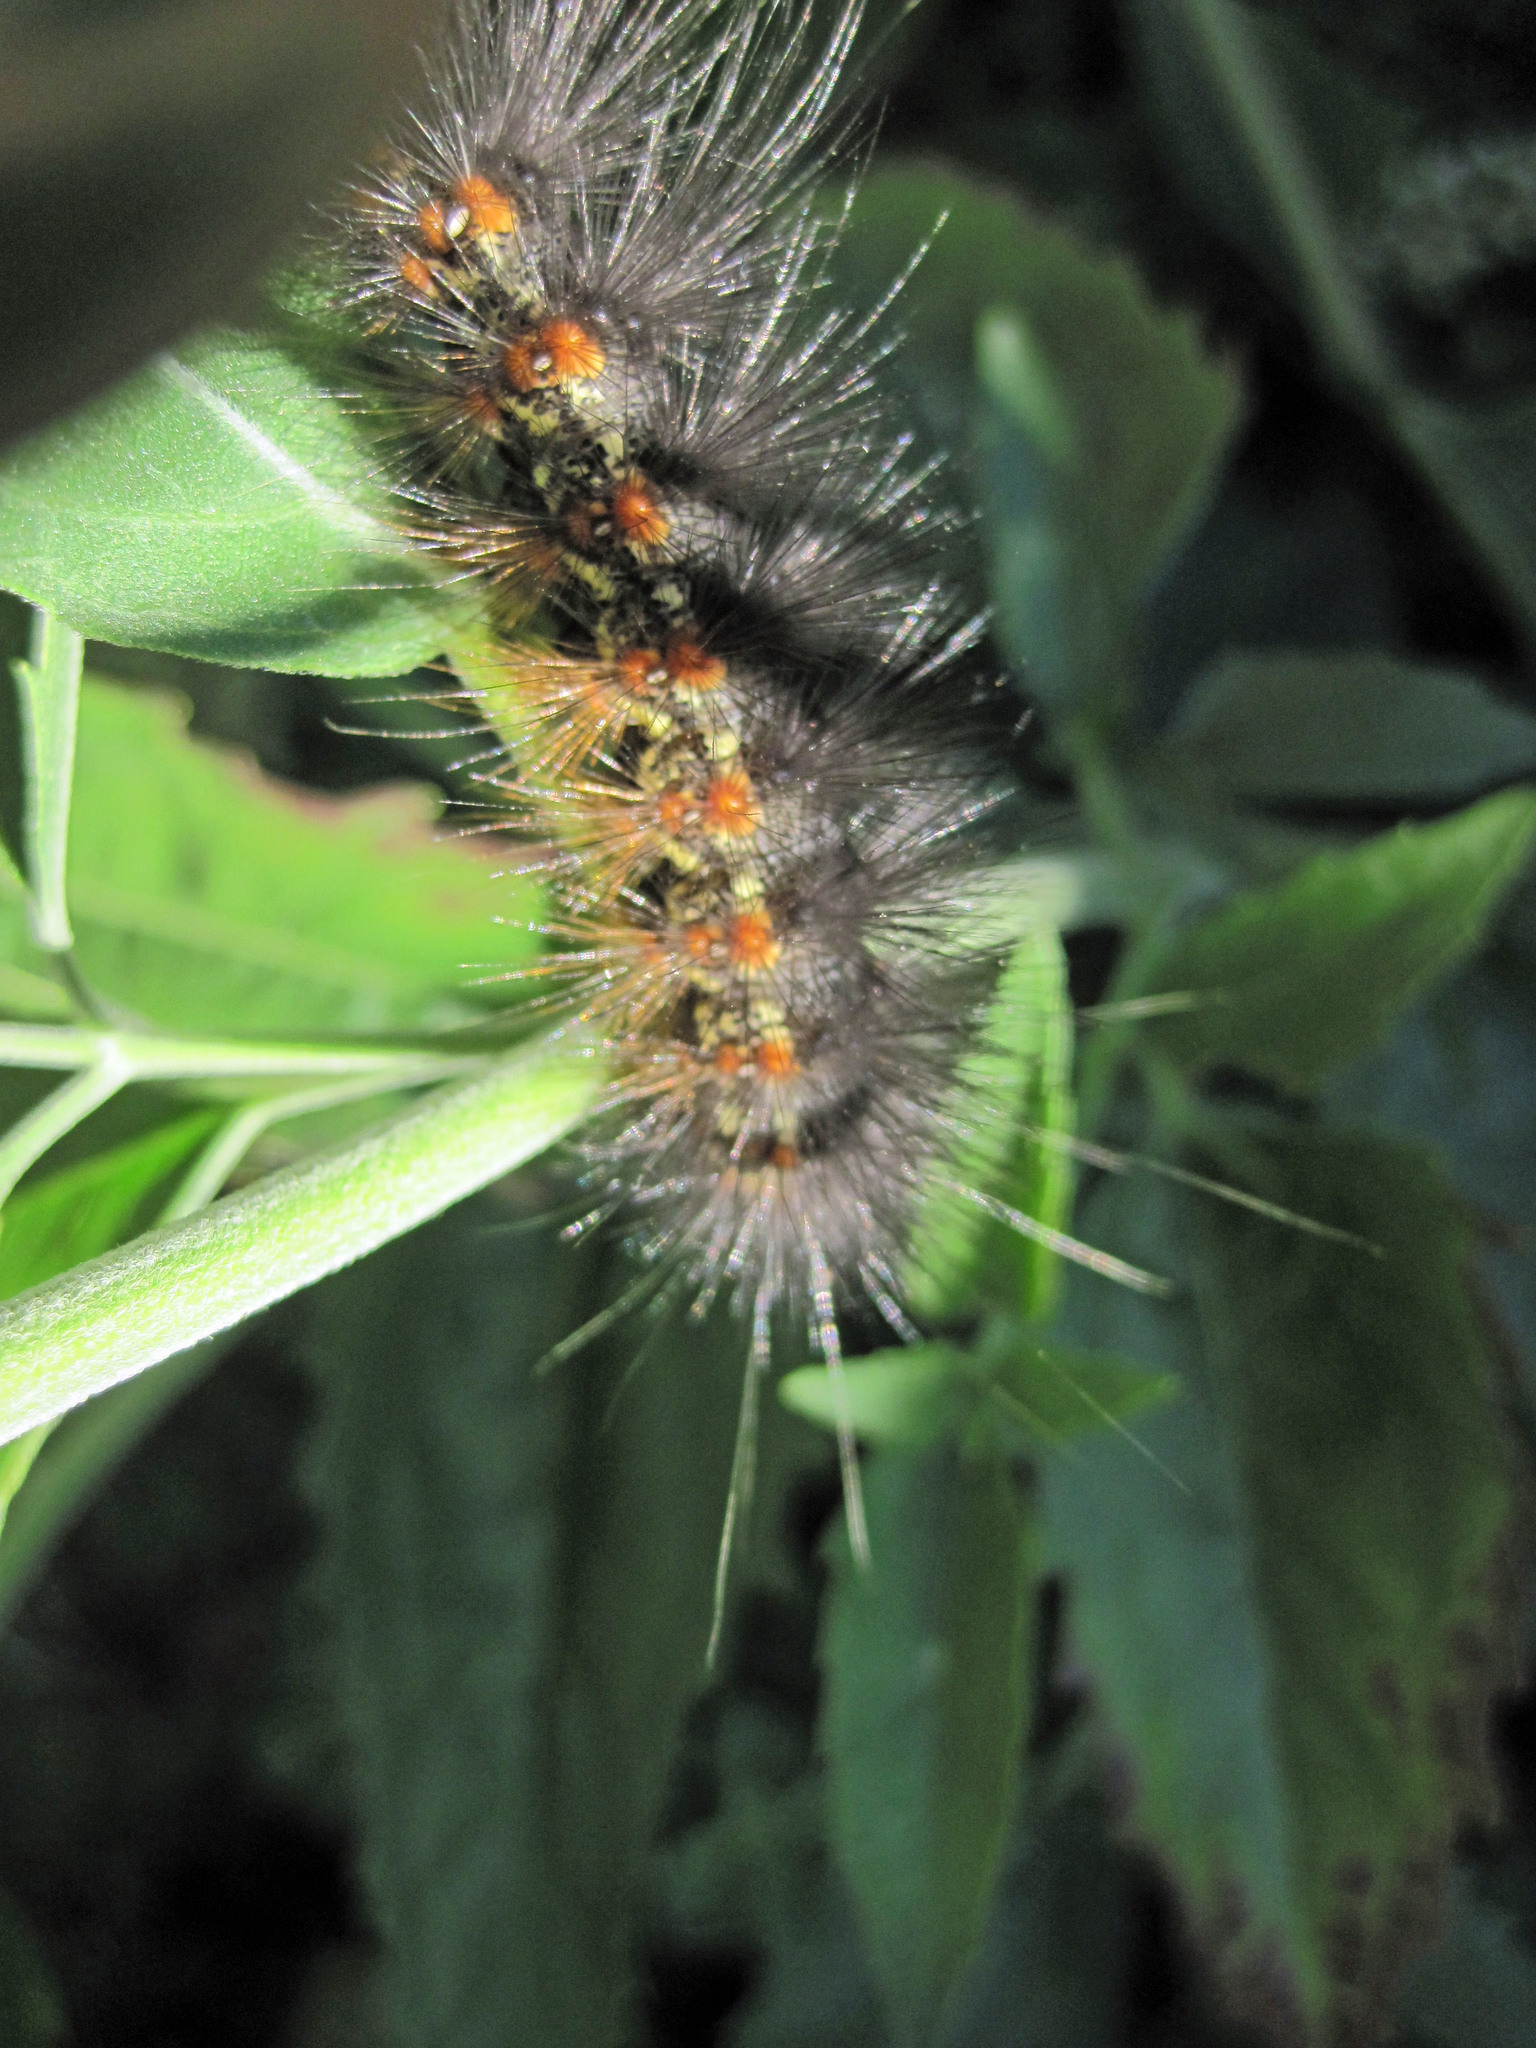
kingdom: Animalia
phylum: Arthropoda
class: Insecta
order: Lepidoptera
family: Erebidae
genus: Estigmene
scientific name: Estigmene acrea
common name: Salt marsh moth
